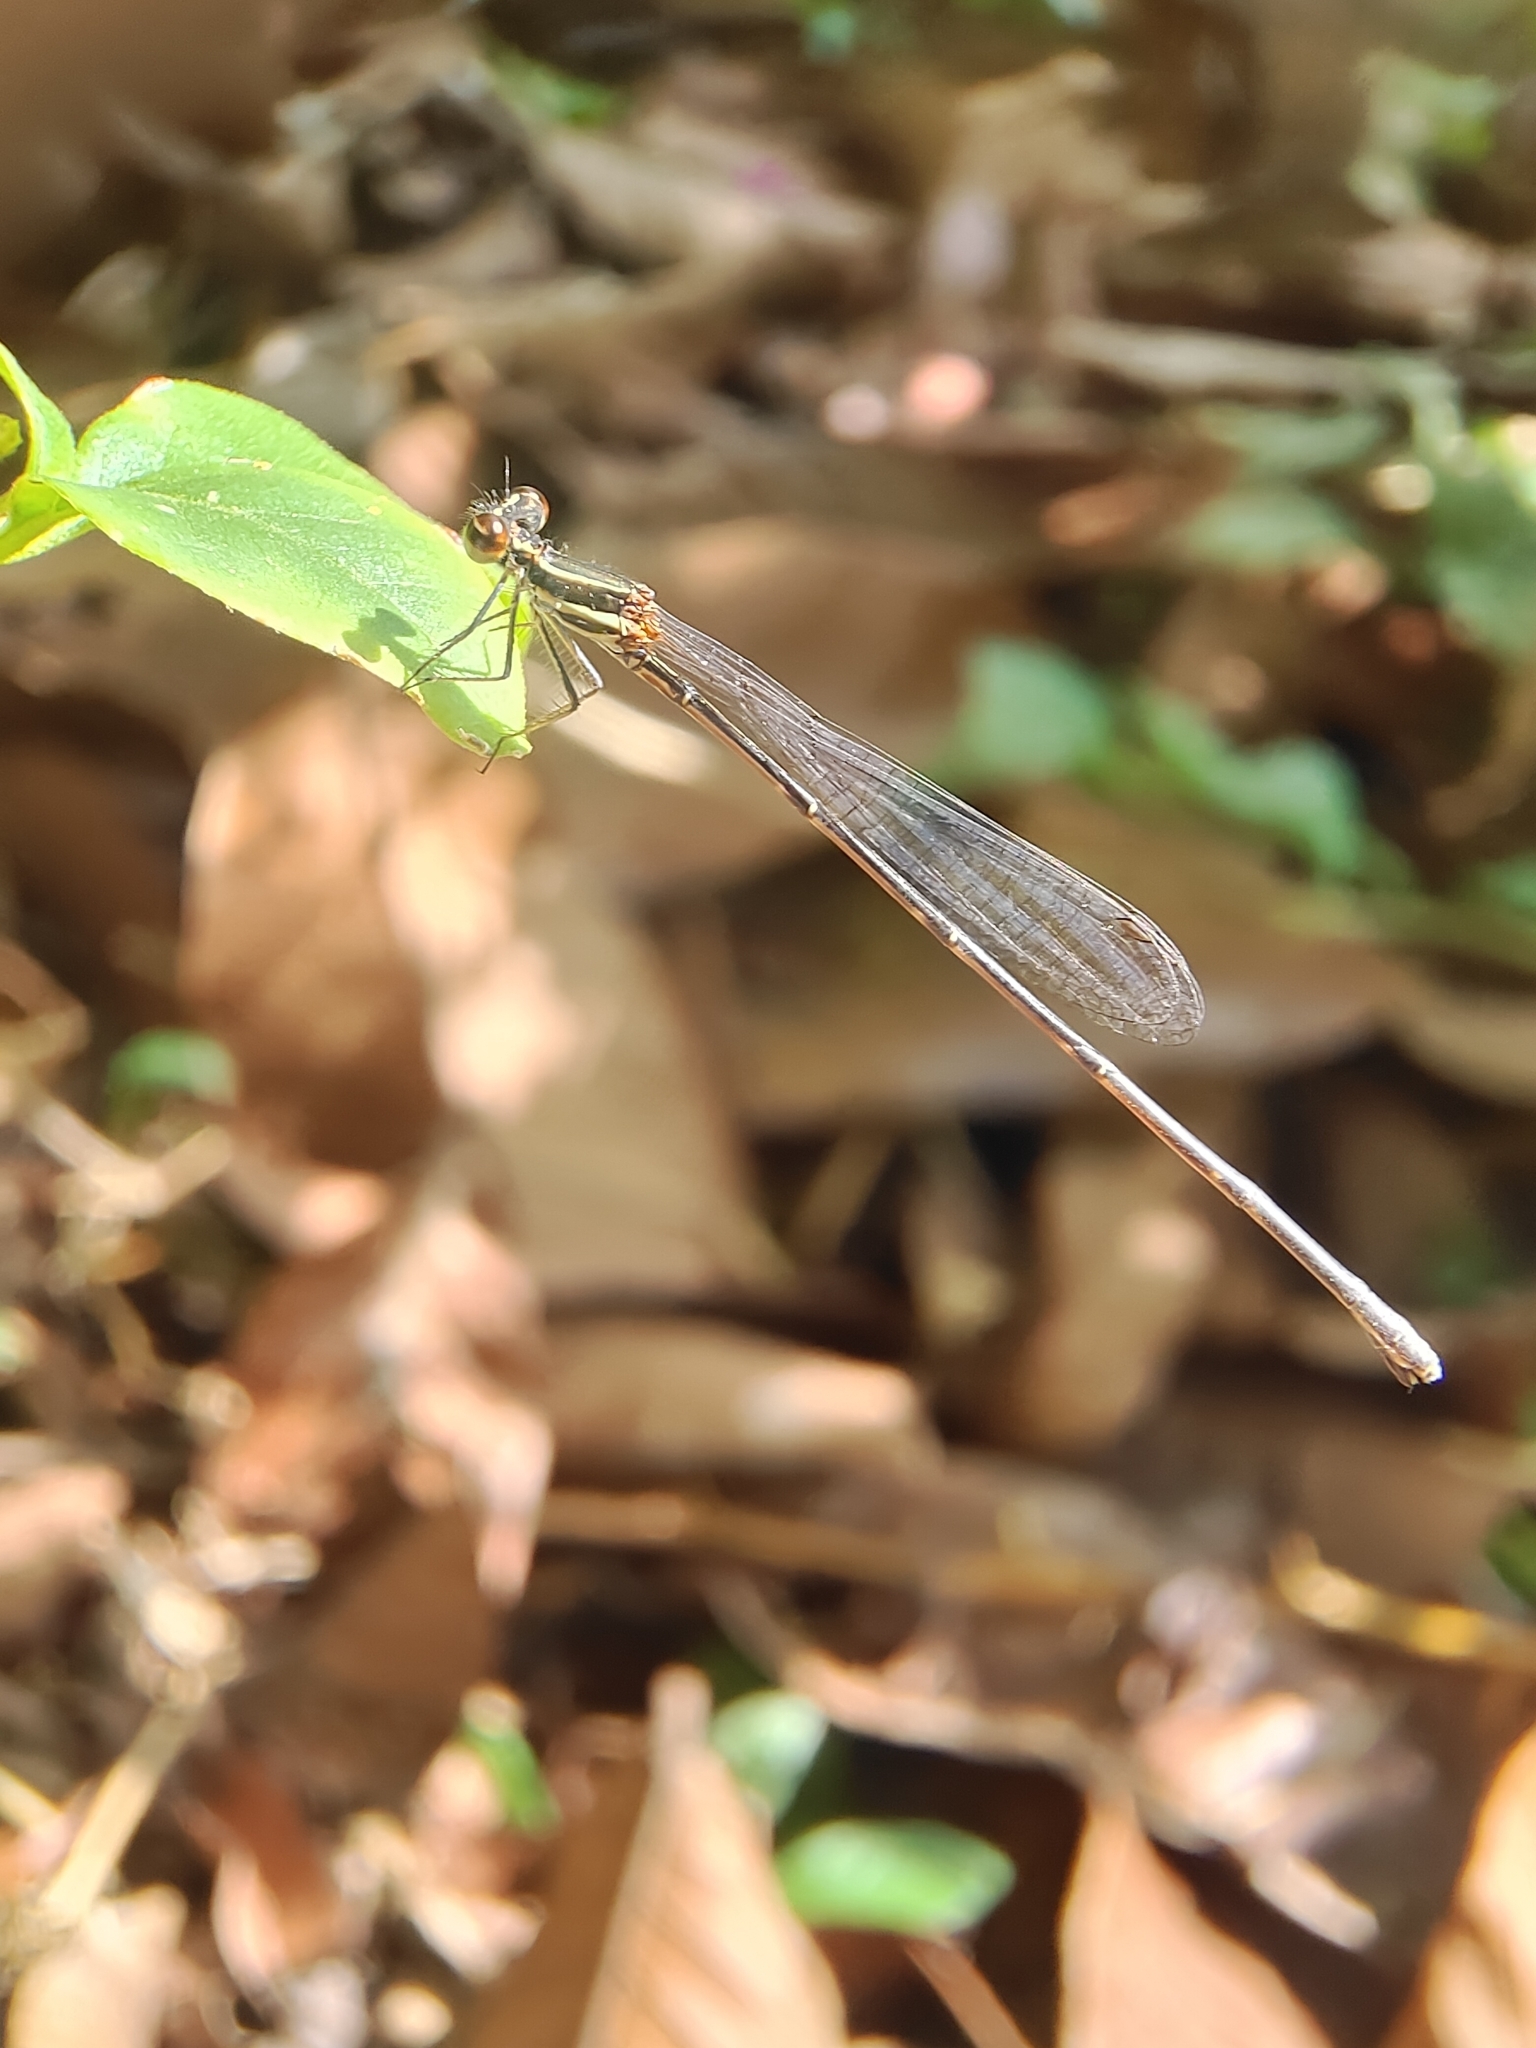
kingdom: Animalia
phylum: Arthropoda
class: Insecta
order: Odonata
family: Platycnemididae
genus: Prodasineura
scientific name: Prodasineura verticalis
